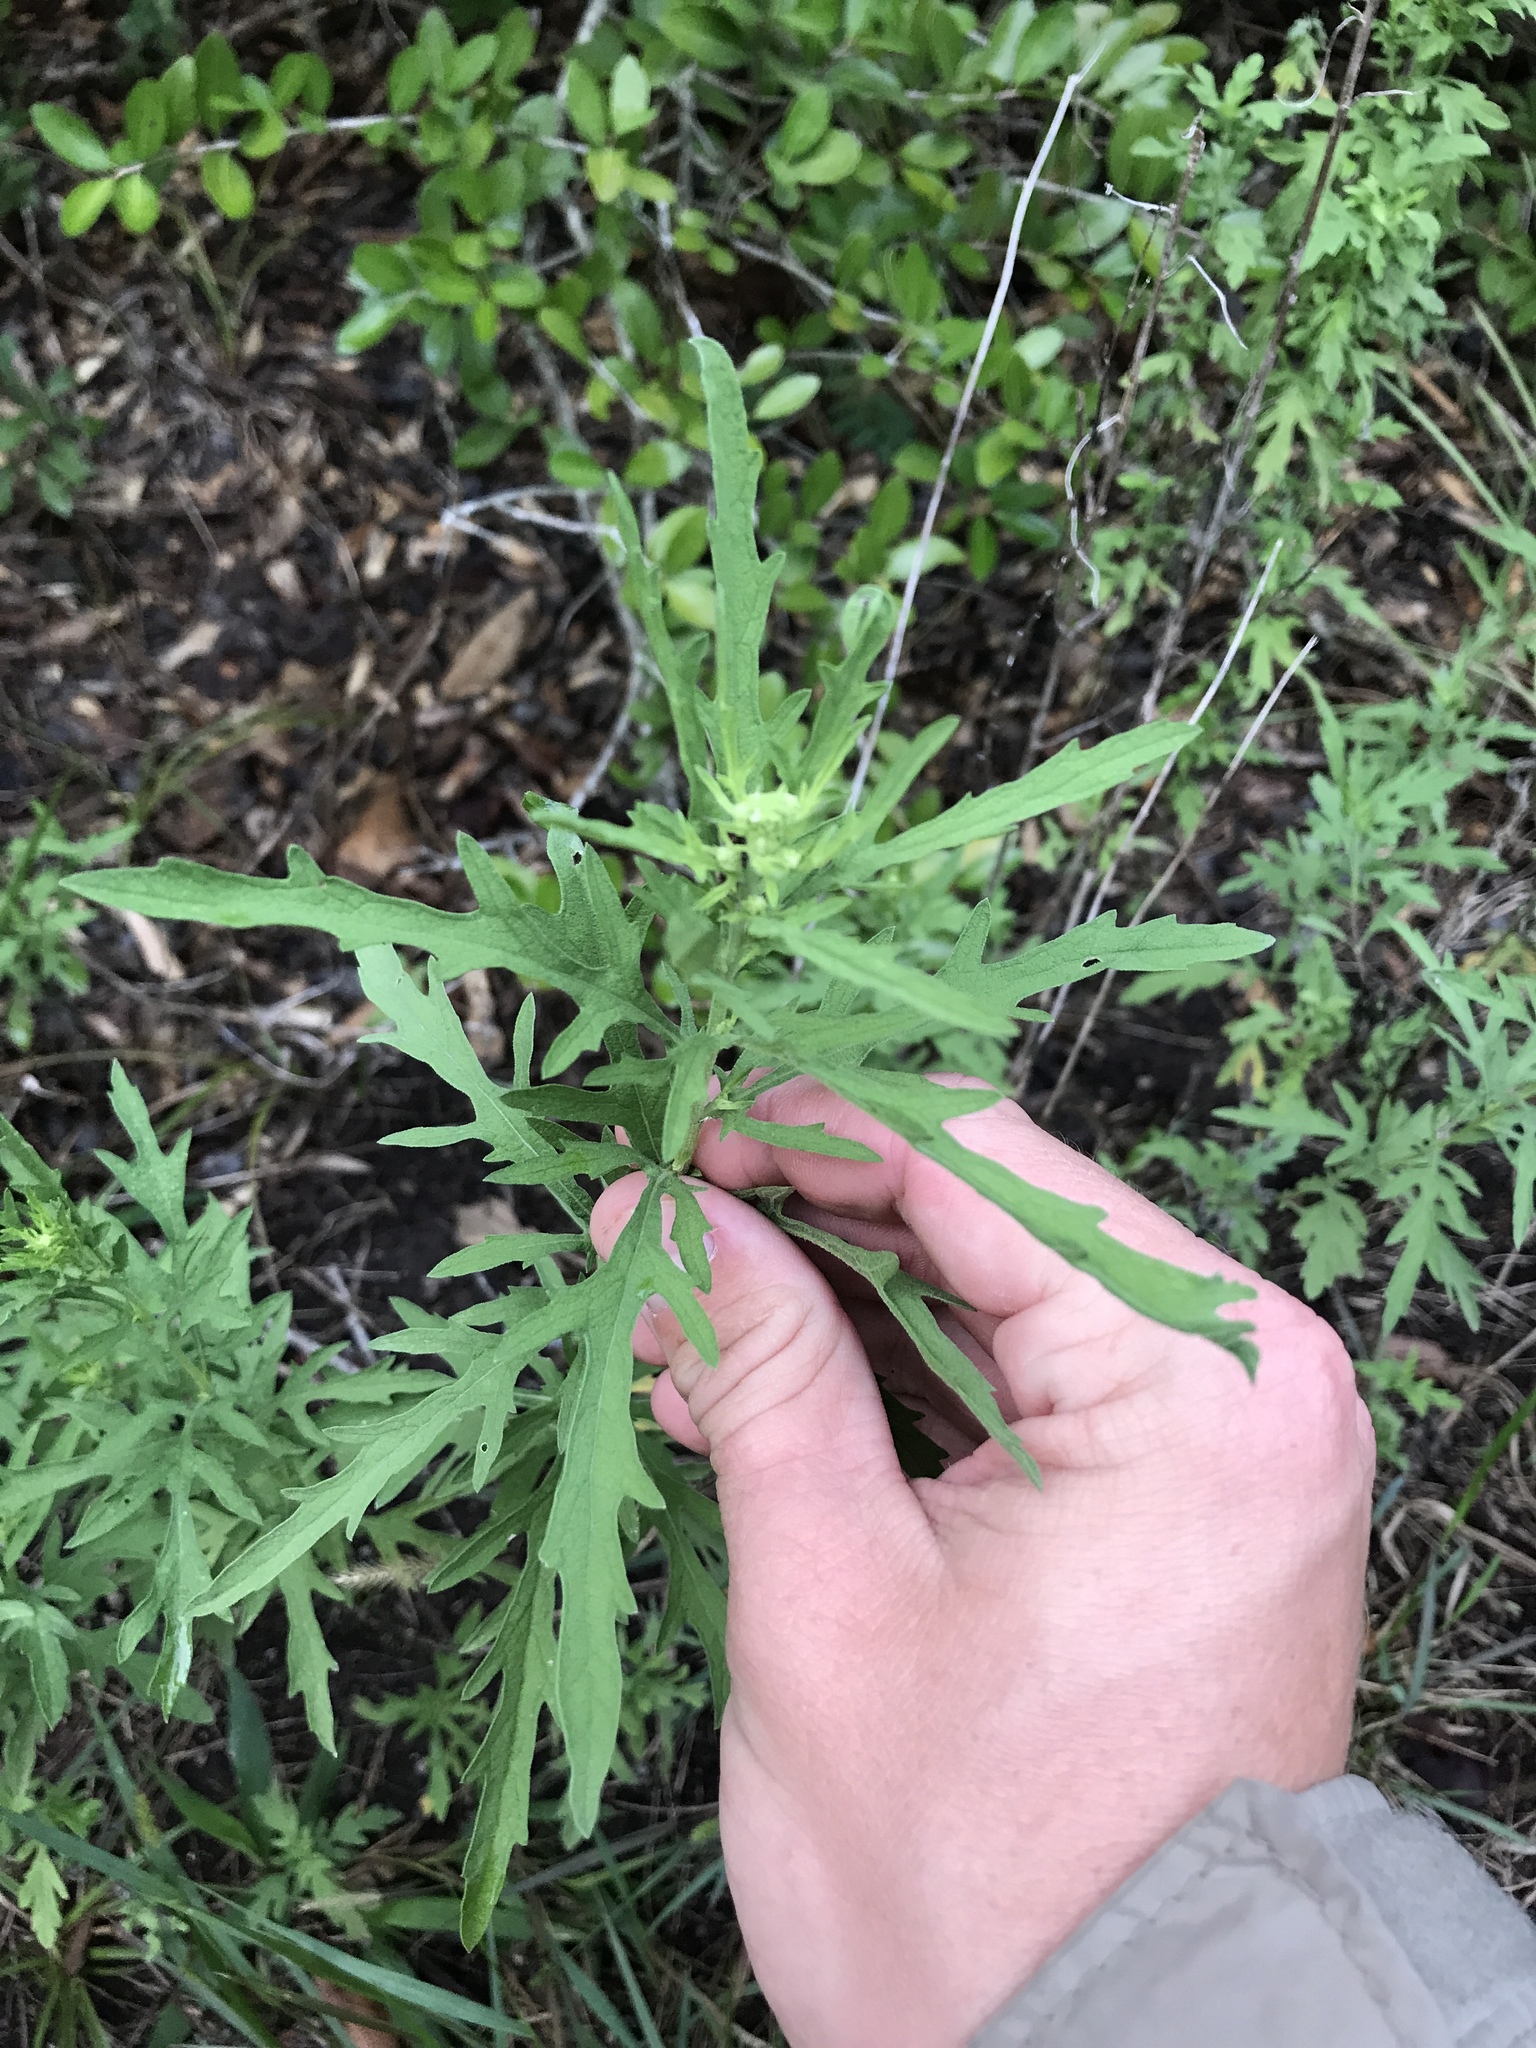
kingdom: Plantae
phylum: Tracheophyta
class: Magnoliopsida
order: Asterales
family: Asteraceae
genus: Ambrosia
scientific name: Ambrosia psilostachya
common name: Perennial ragweed
